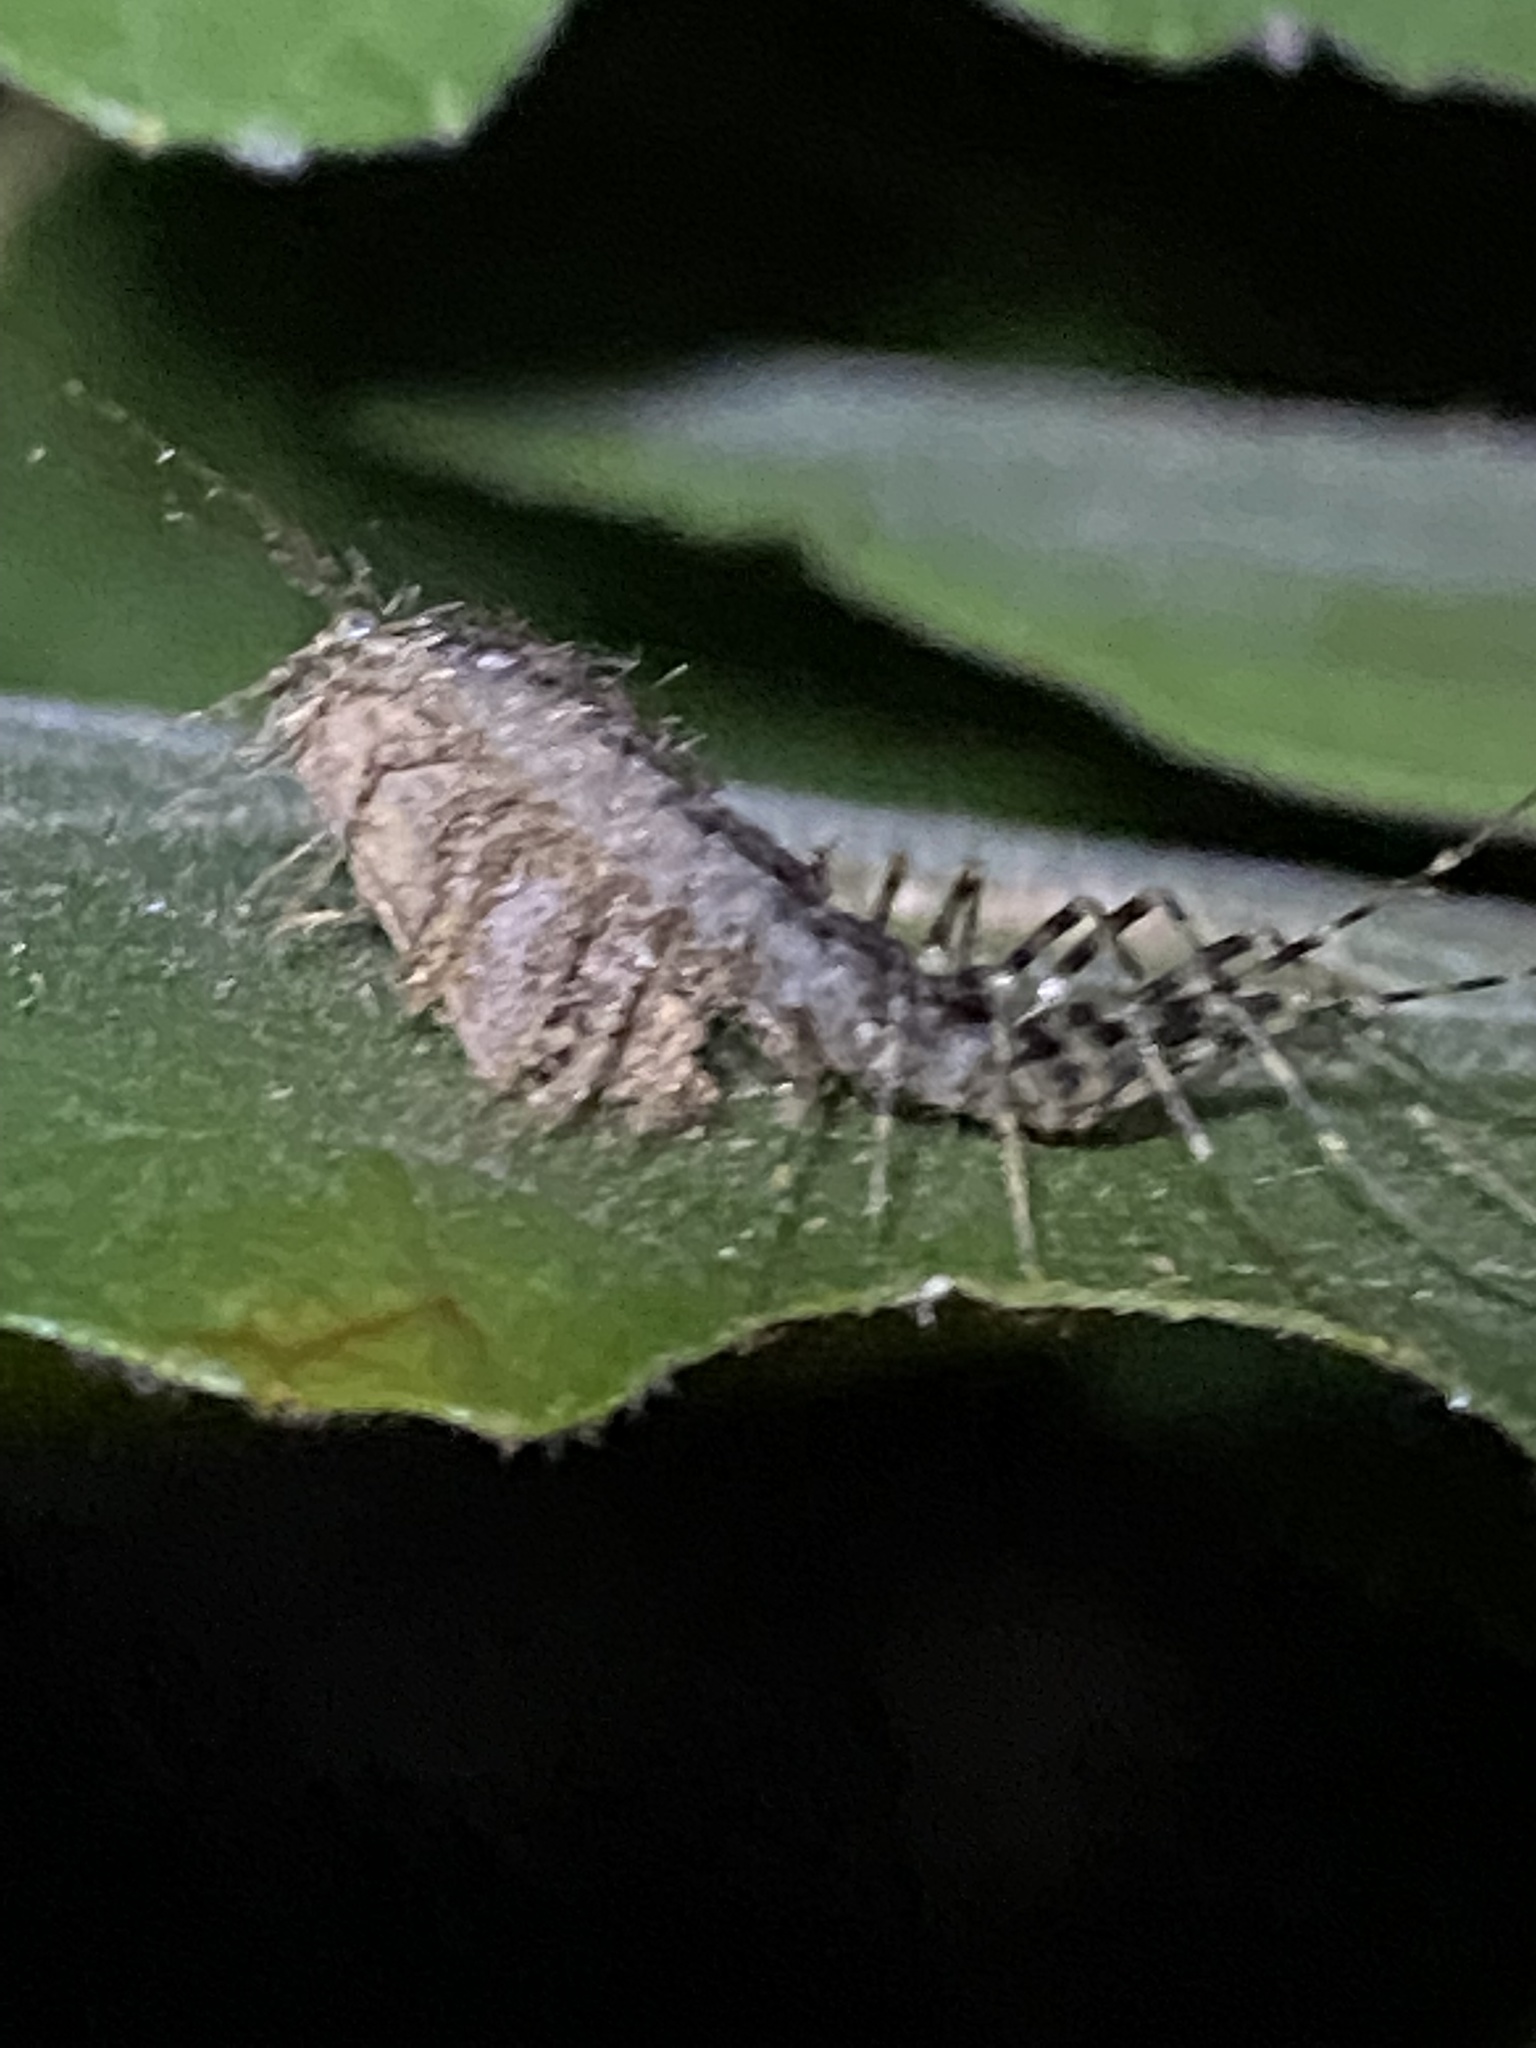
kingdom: Animalia
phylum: Arthropoda
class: Chilopoda
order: Scutigeromorpha
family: Scutigeridae
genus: Scutigera
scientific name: Scutigera coleoptrata
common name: House centipede
